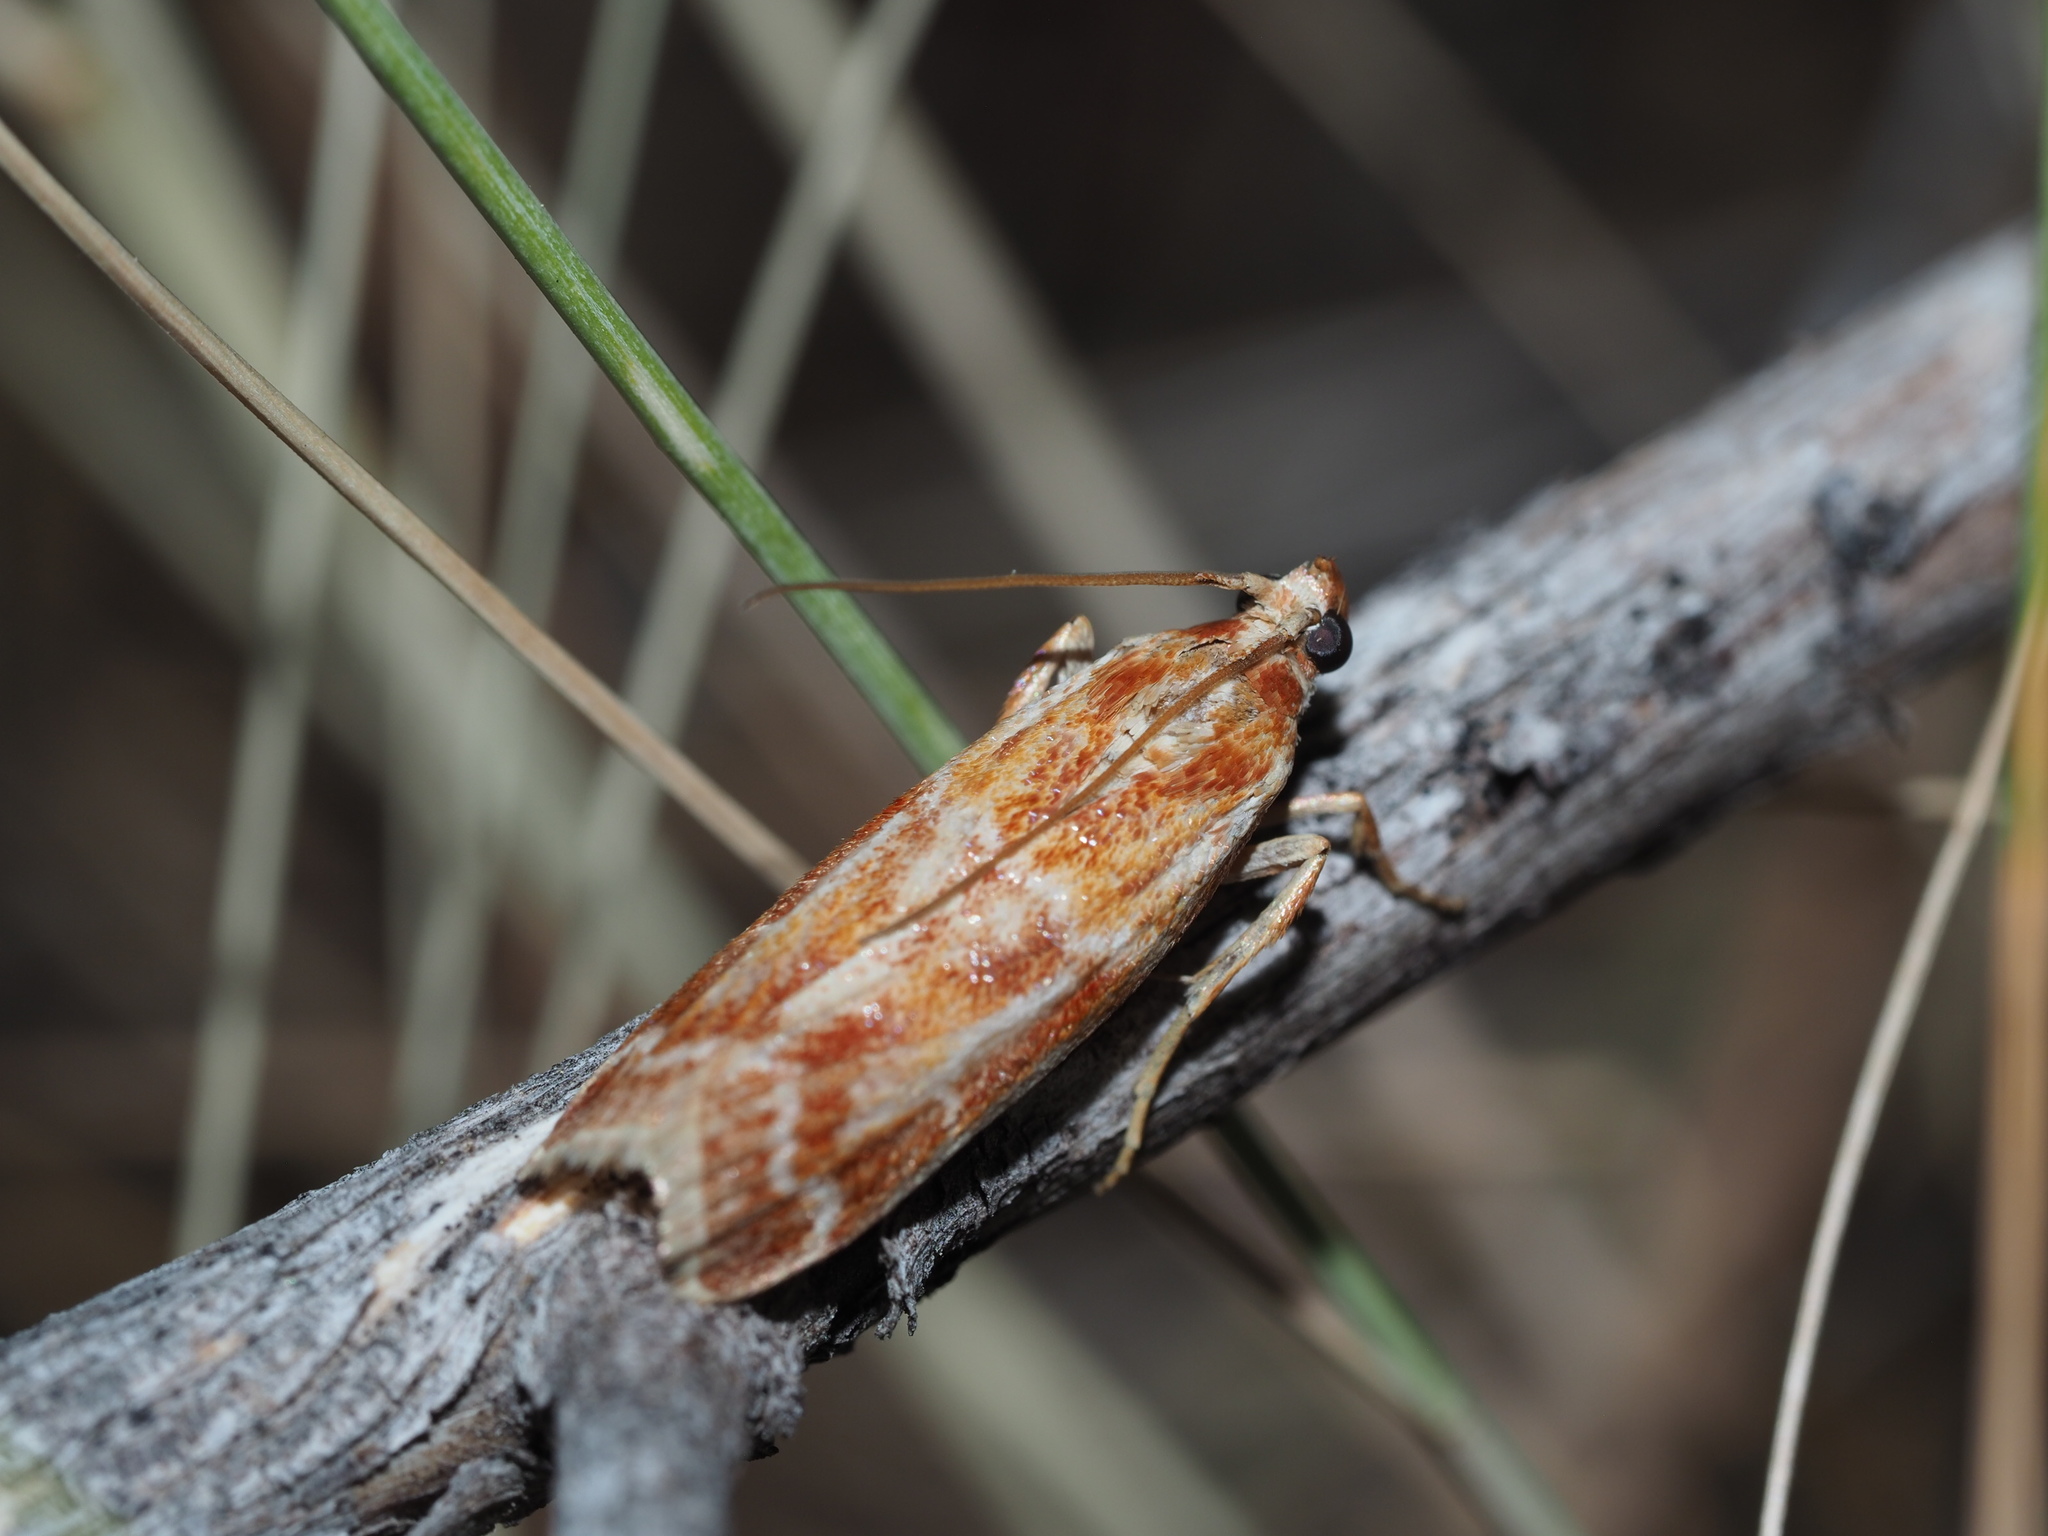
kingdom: Animalia
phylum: Arthropoda
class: Insecta
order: Lepidoptera
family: Pyralidae
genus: Dioryctria
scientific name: Dioryctria auranticella
